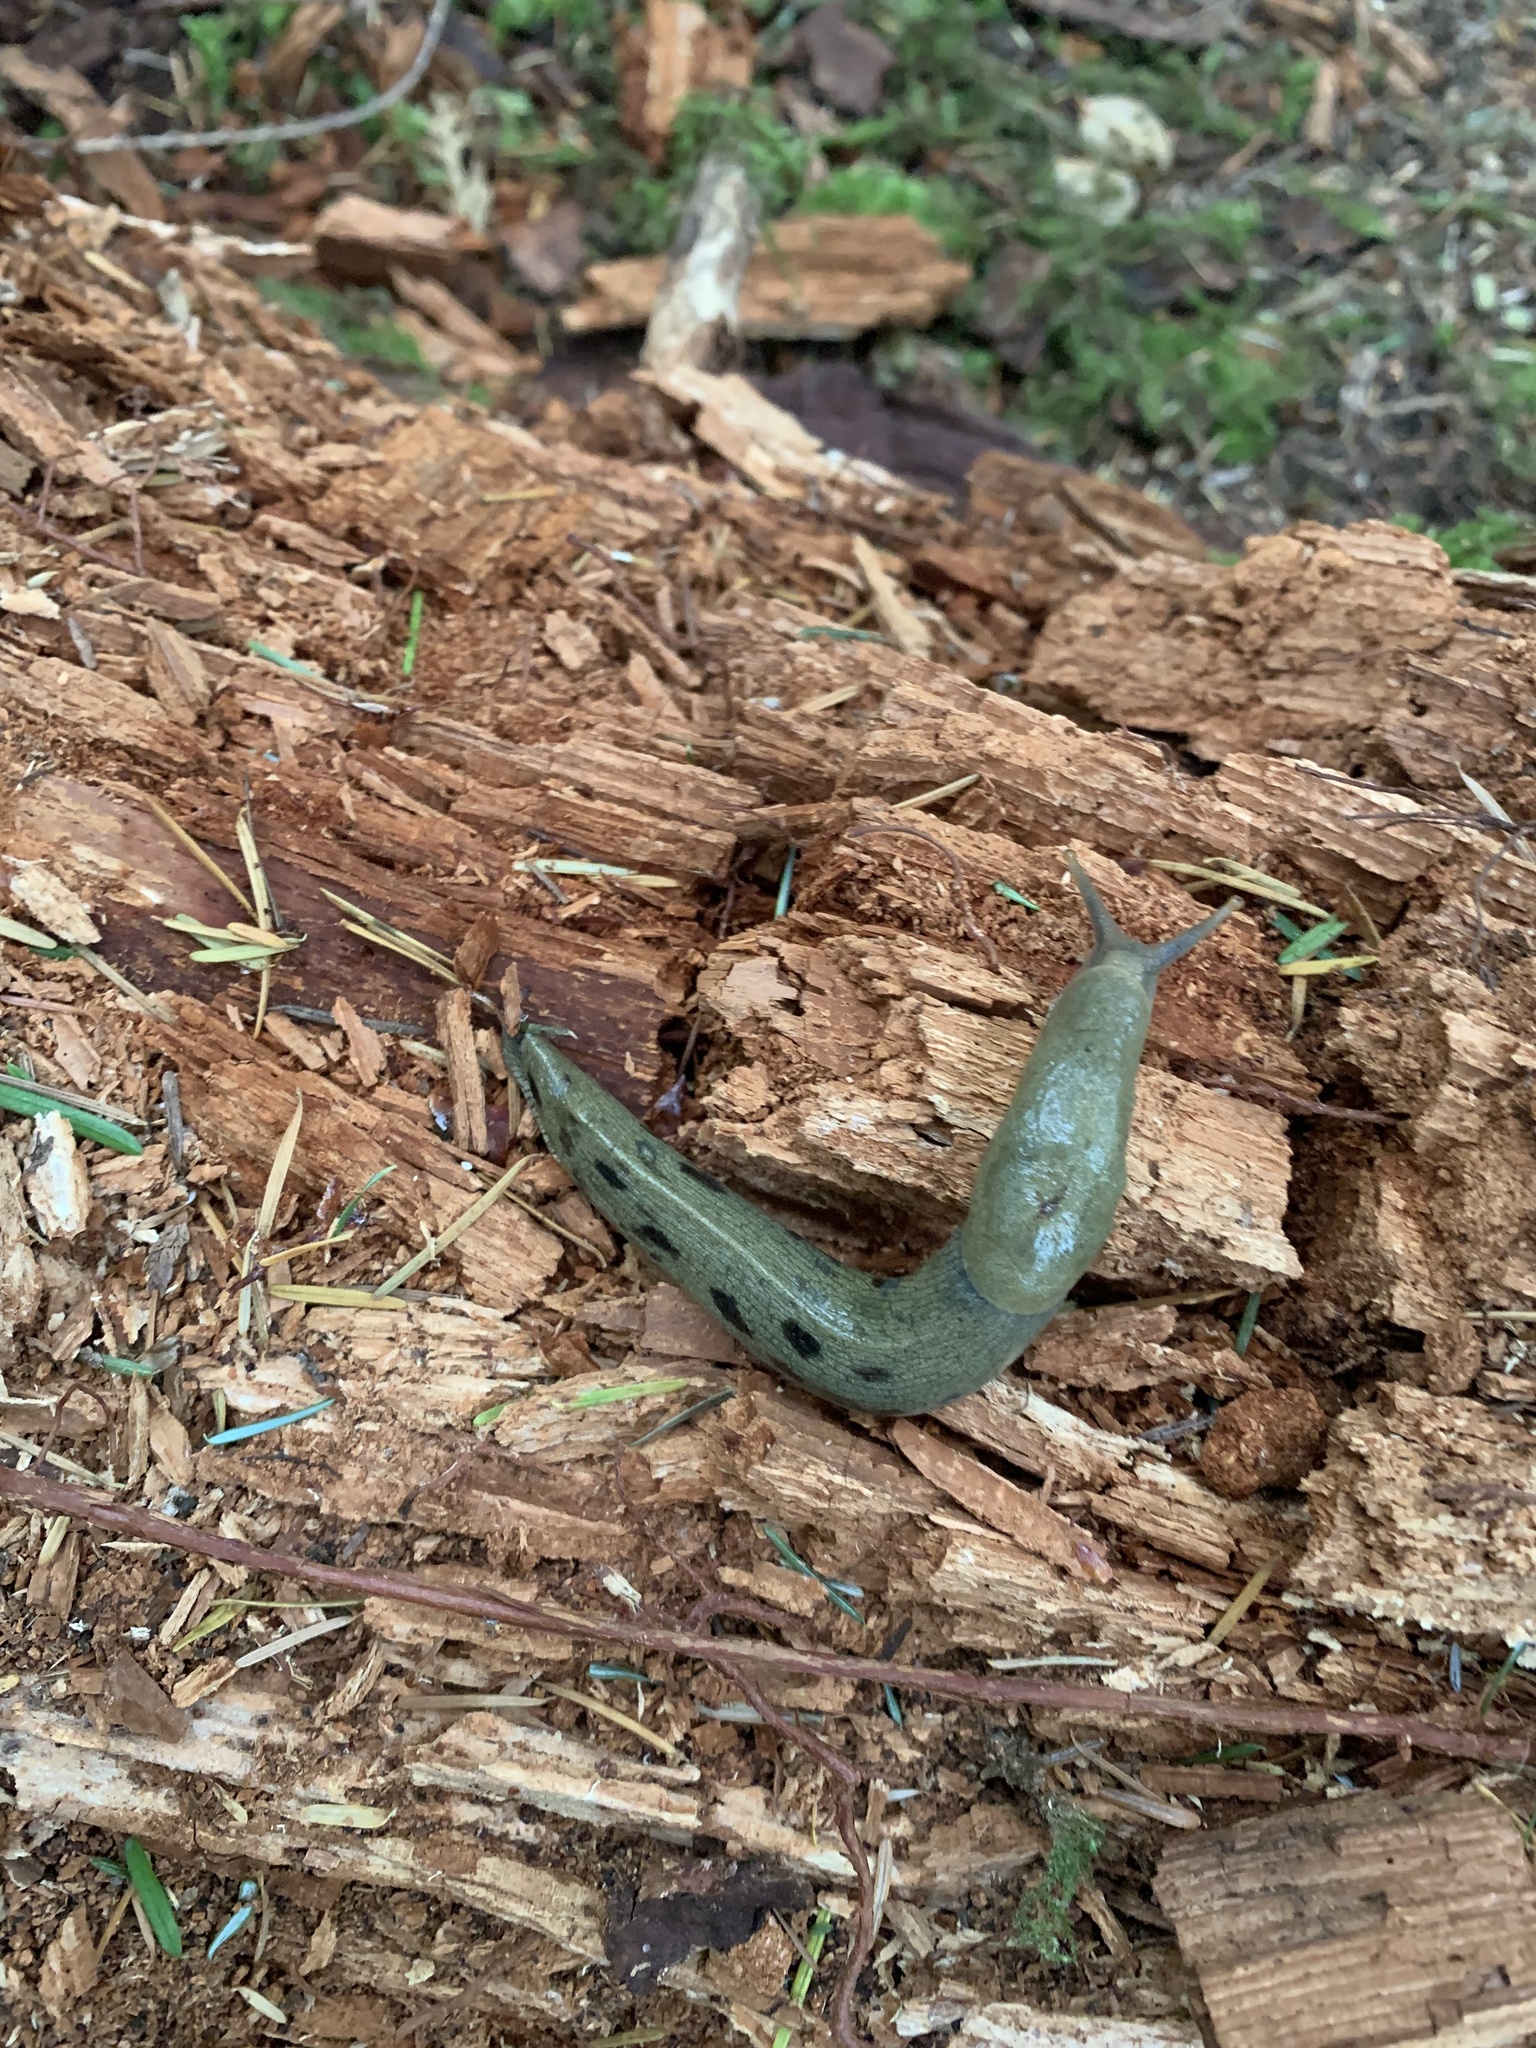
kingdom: Animalia
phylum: Mollusca
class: Gastropoda
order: Stylommatophora
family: Ariolimacidae
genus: Ariolimax
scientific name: Ariolimax columbianus
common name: Pacific banana slug
